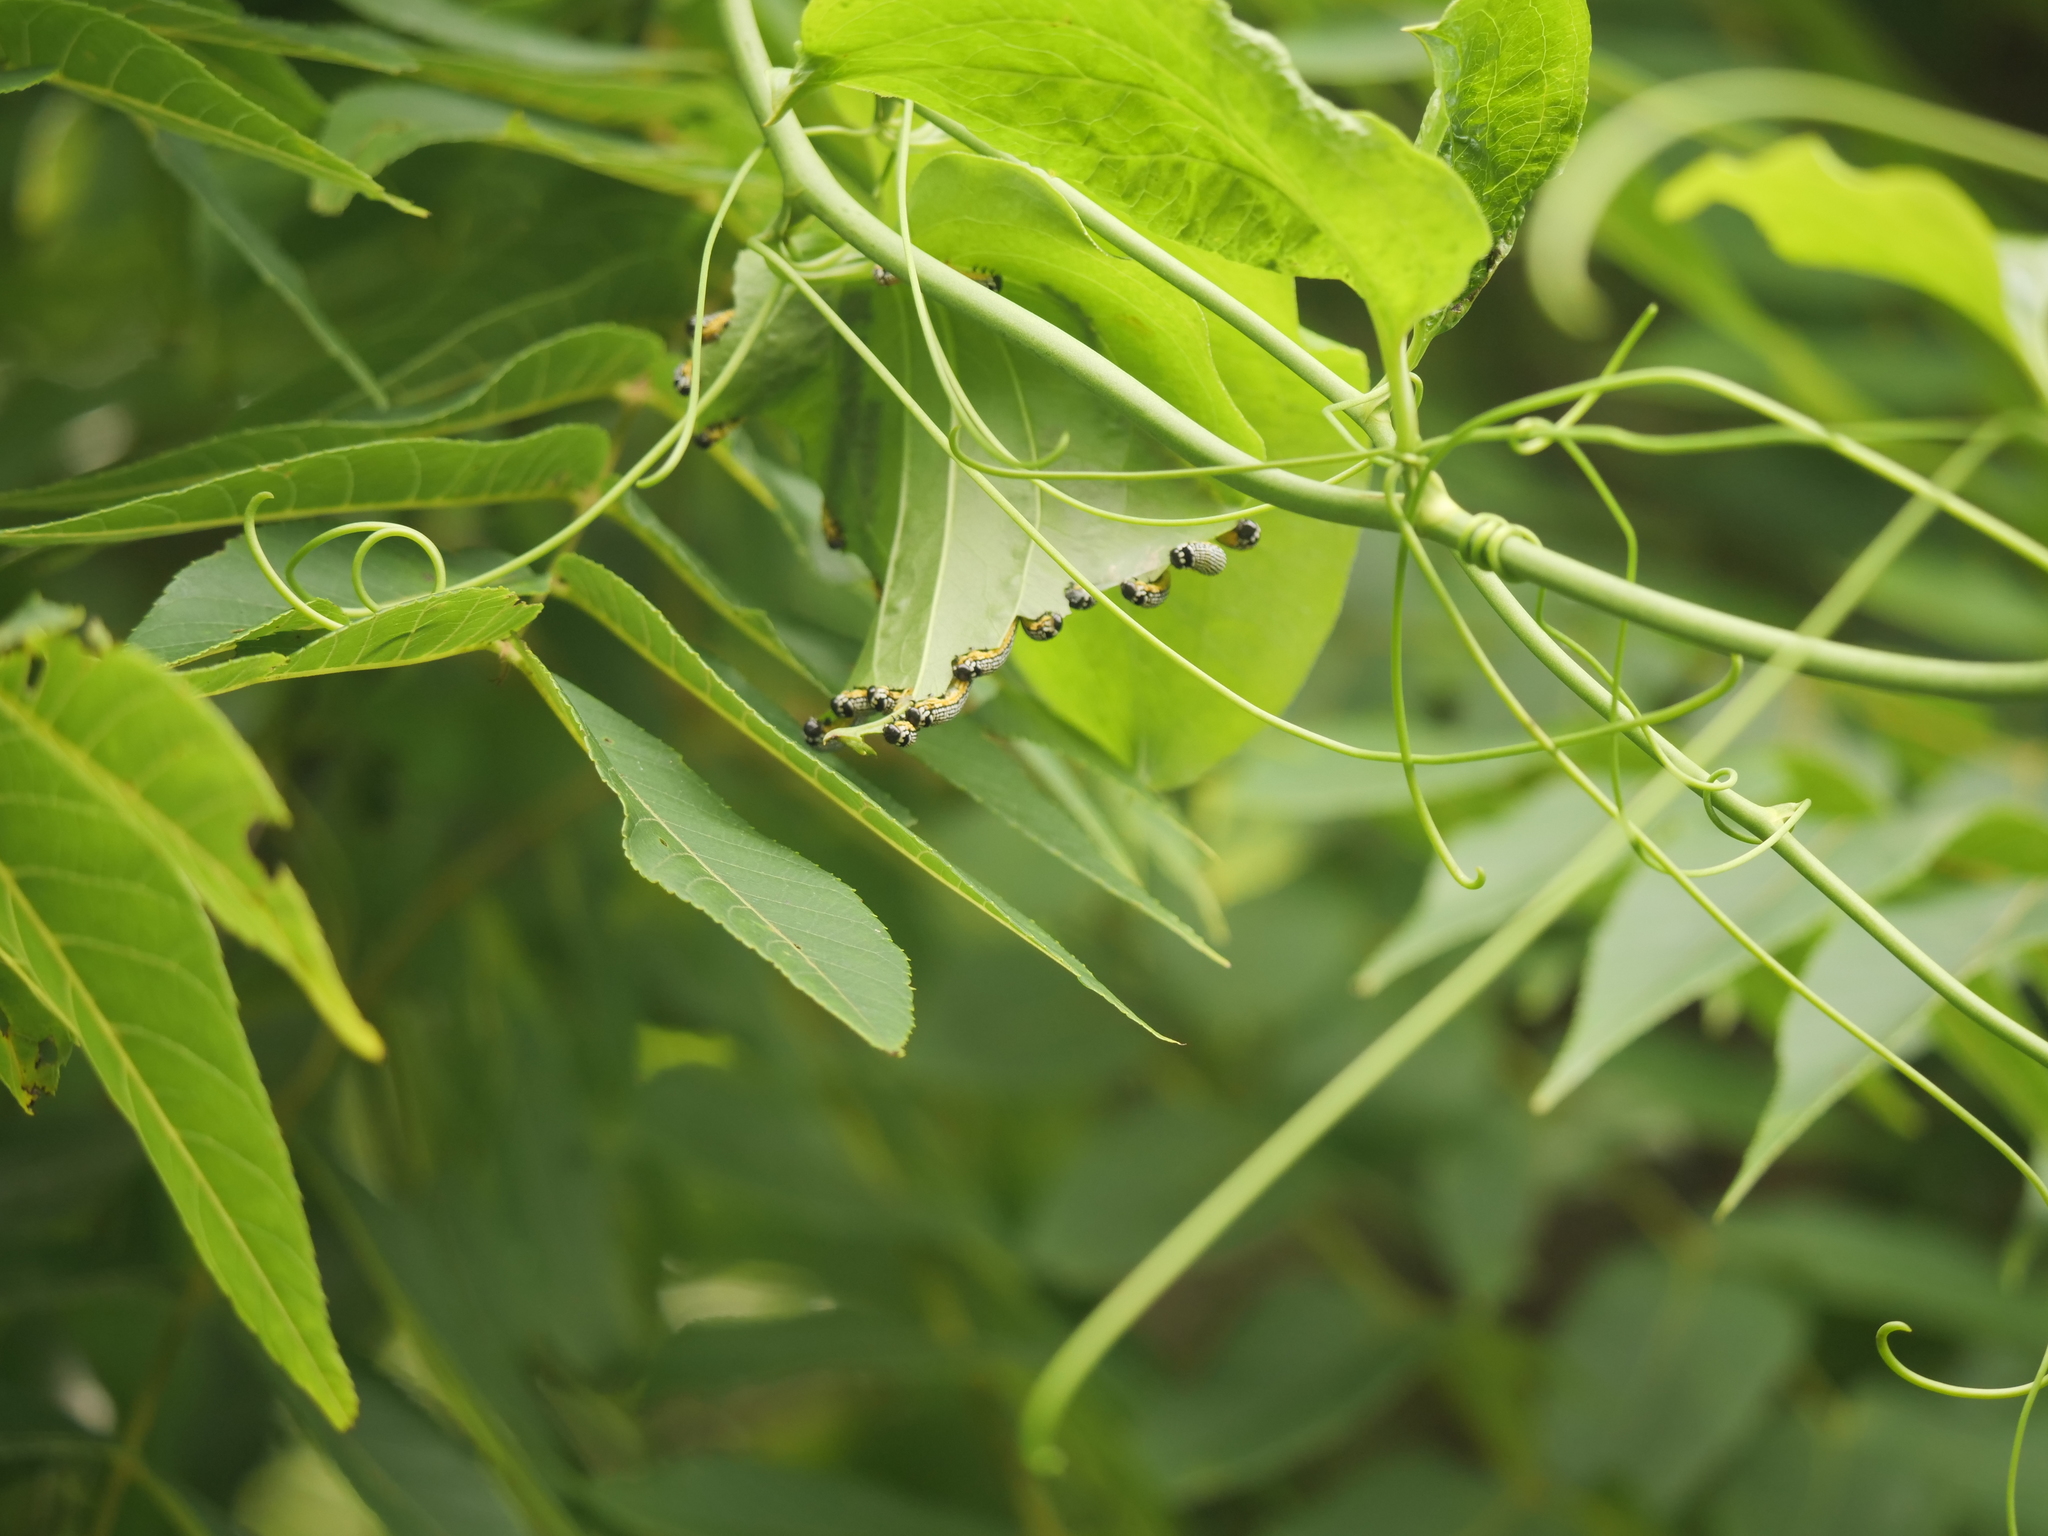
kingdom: Animalia
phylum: Arthropoda
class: Insecta
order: Lepidoptera
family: Noctuidae
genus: Phosphila
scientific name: Phosphila turbulenta
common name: Turbulent phosphila moth
